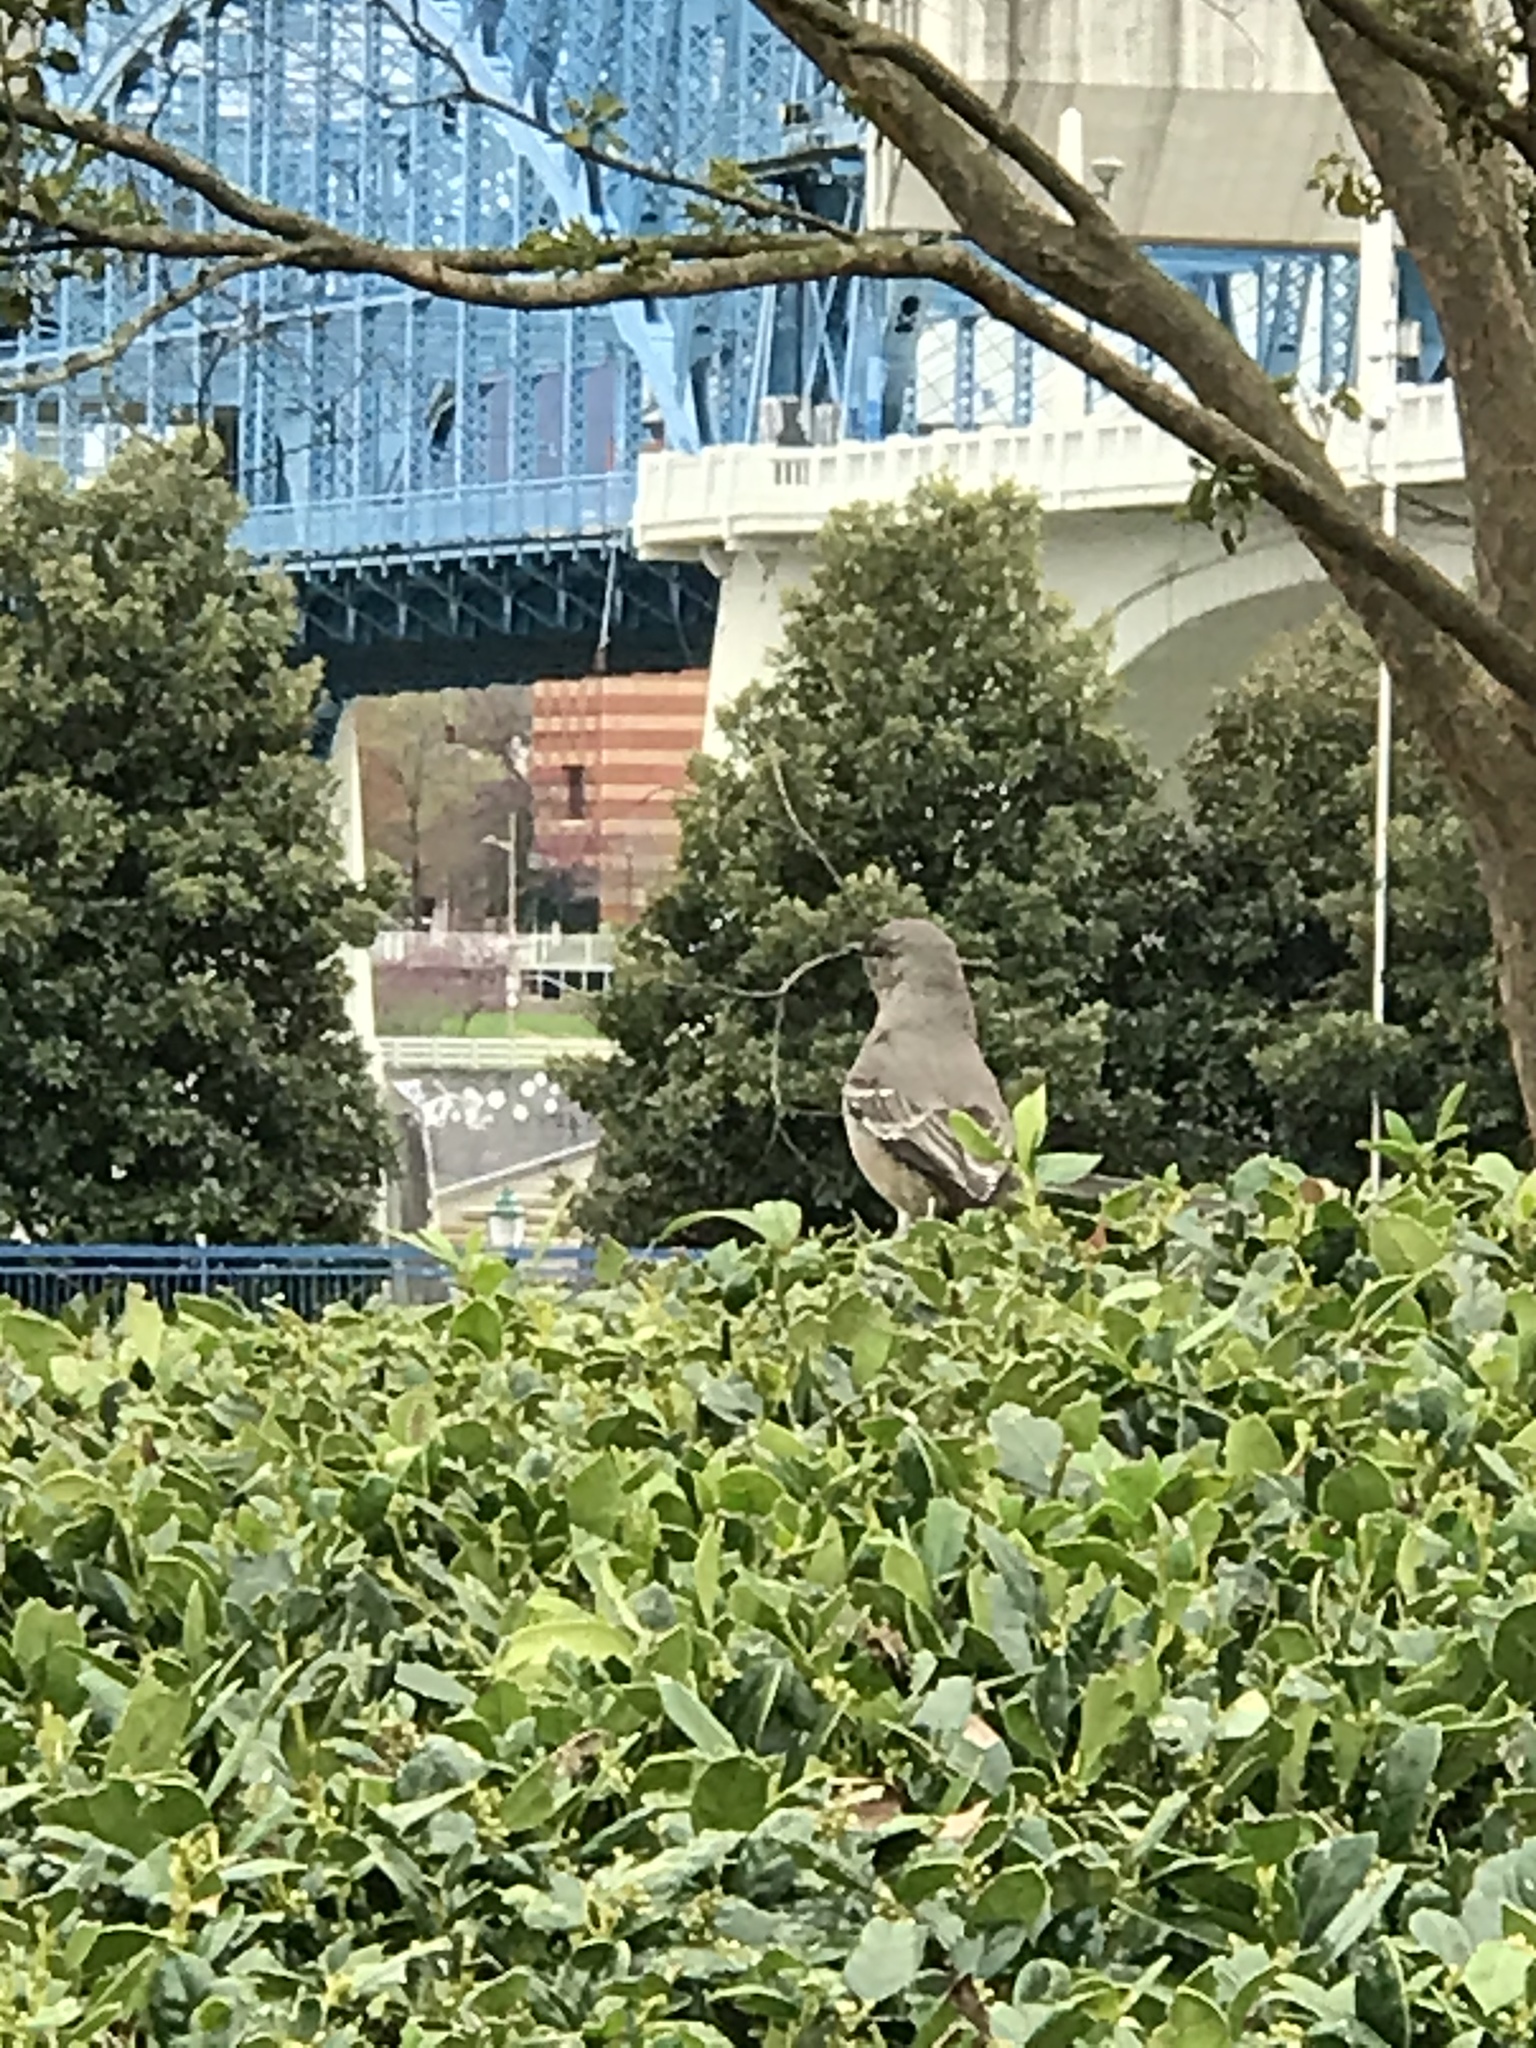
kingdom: Animalia
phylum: Chordata
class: Aves
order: Passeriformes
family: Mimidae
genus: Mimus
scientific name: Mimus polyglottos
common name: Northern mockingbird
